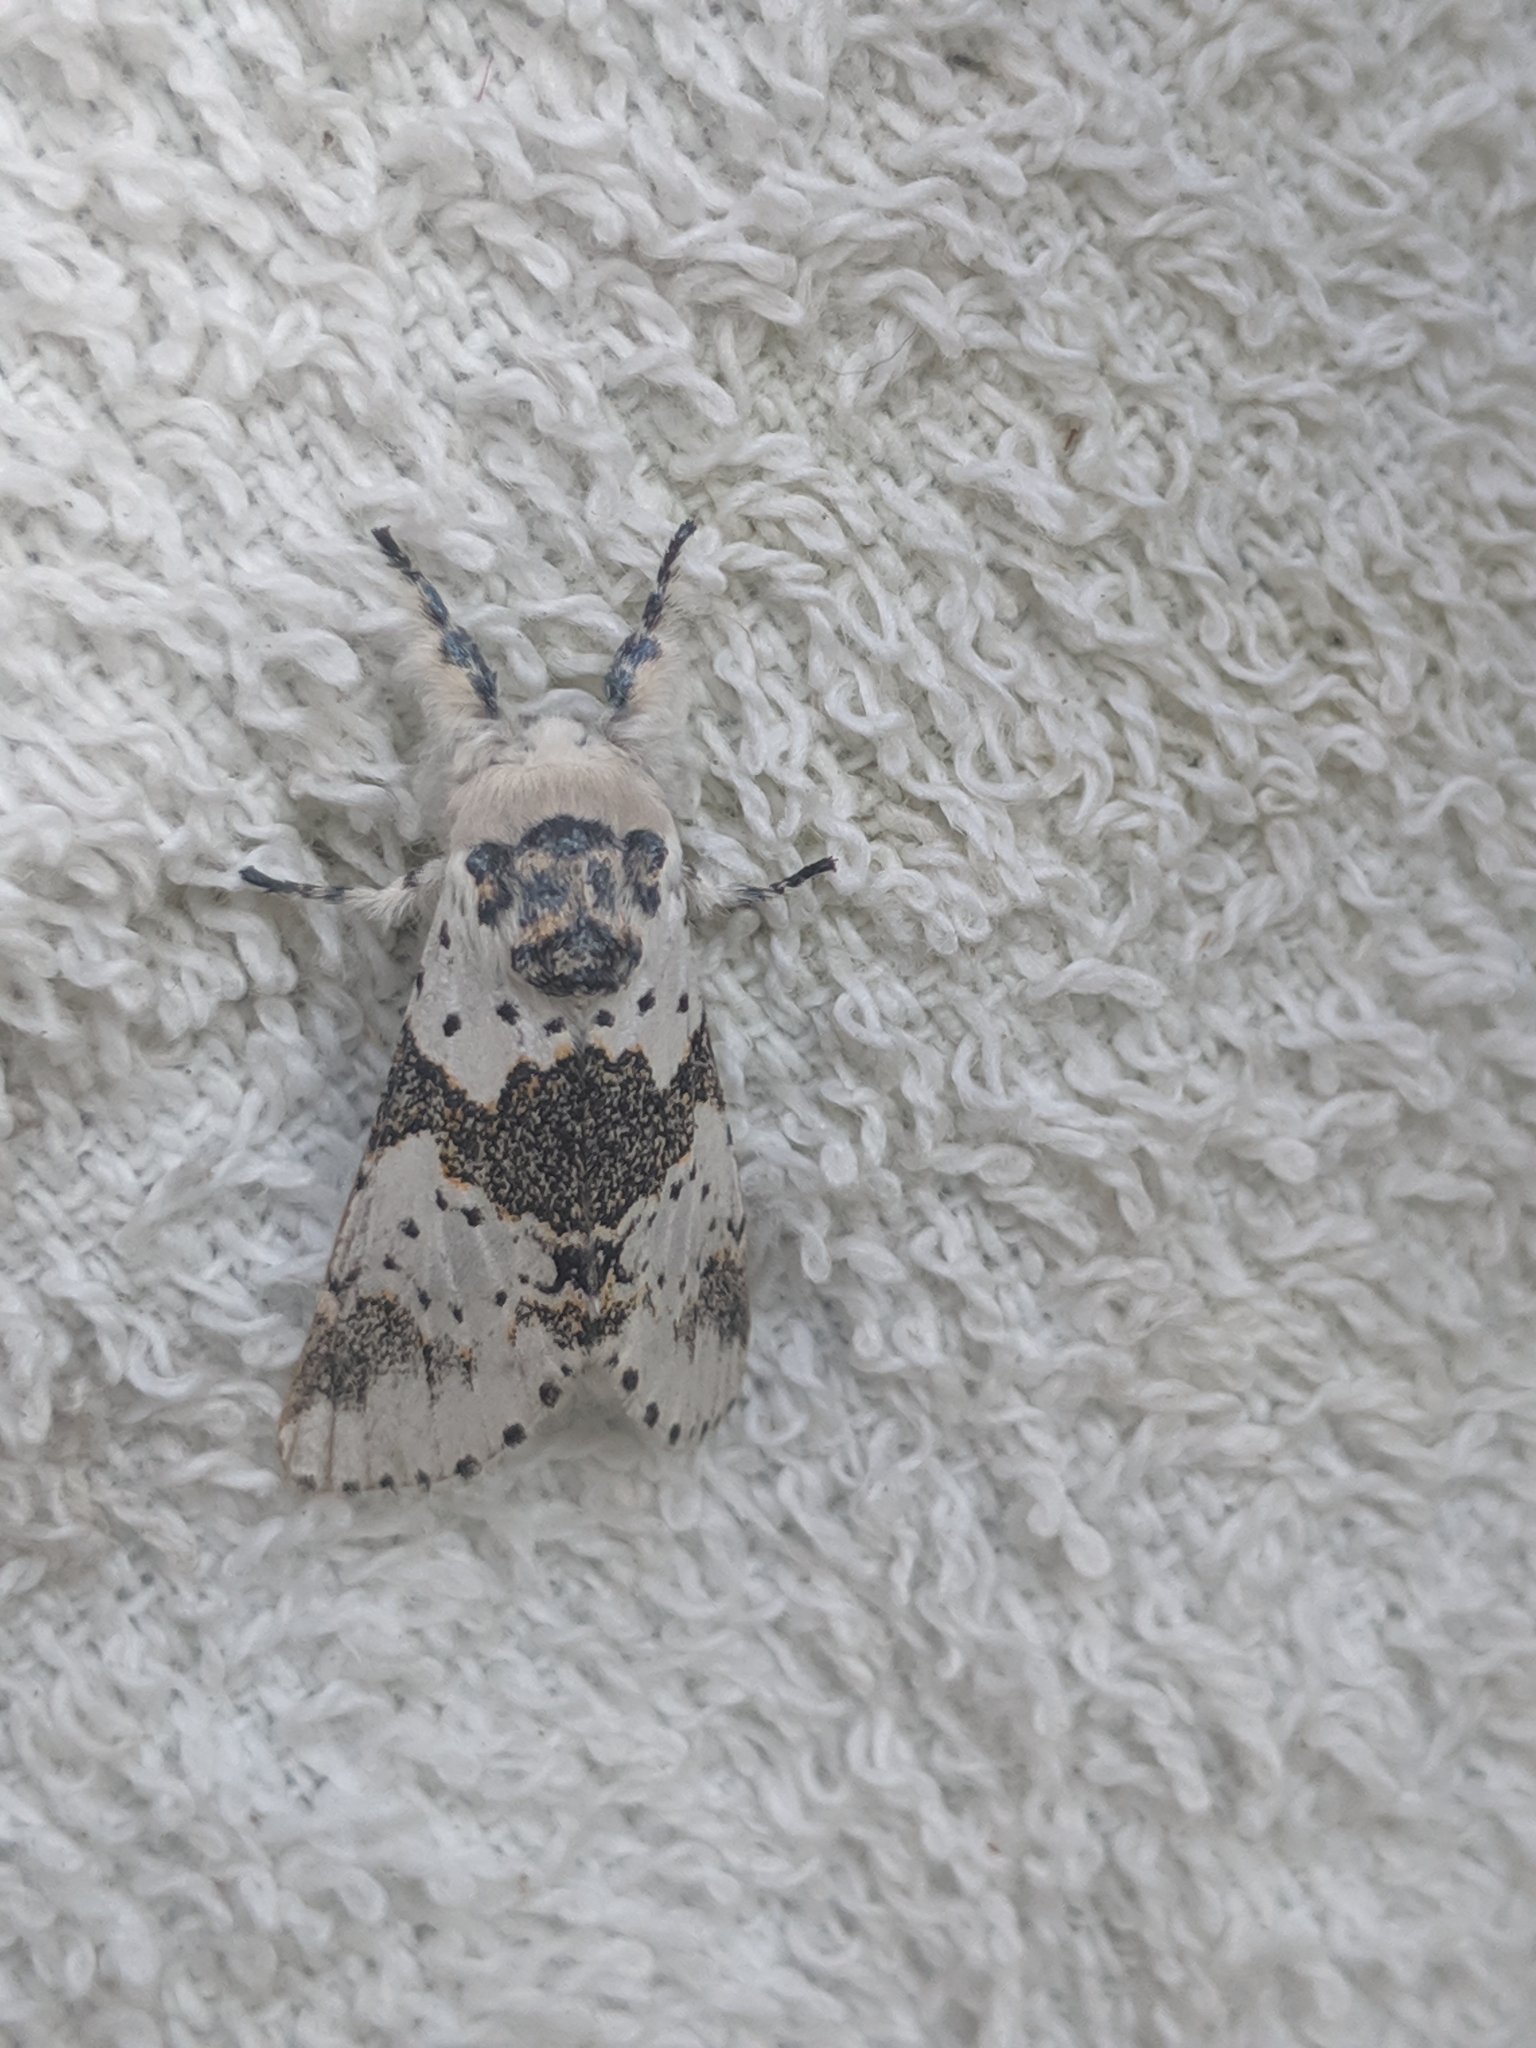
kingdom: Animalia
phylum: Arthropoda
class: Insecta
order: Lepidoptera
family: Notodontidae
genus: Furcula
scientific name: Furcula borealis
